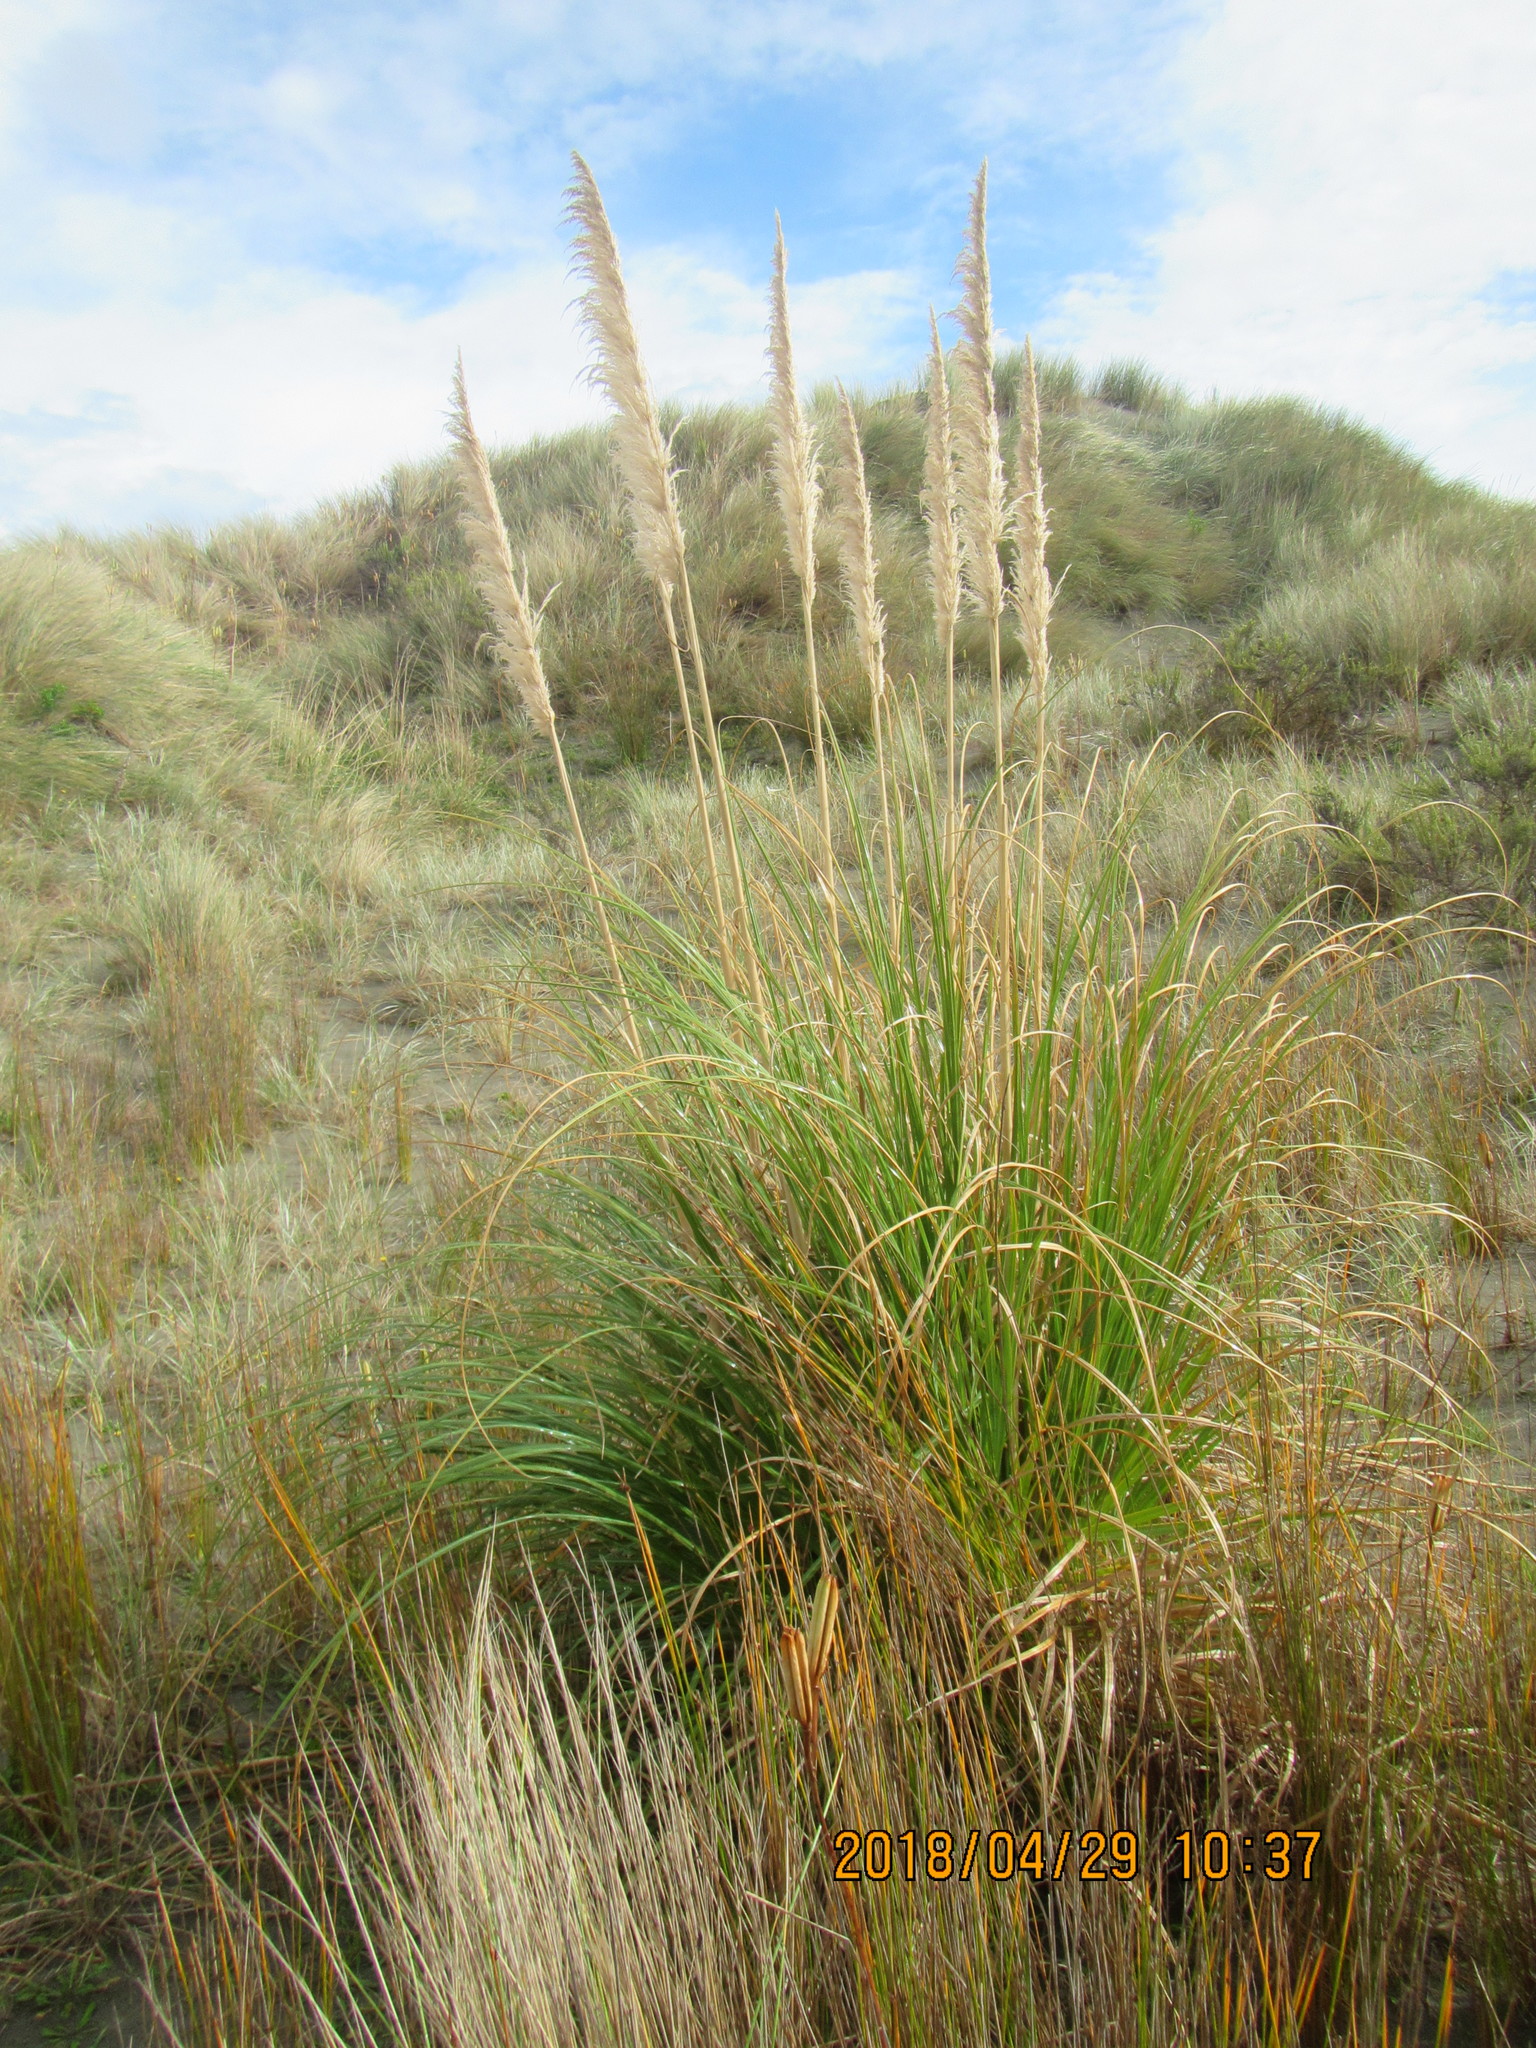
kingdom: Plantae
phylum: Tracheophyta
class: Liliopsida
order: Poales
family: Poaceae
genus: Cortaderia
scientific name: Cortaderia selloana
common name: Uruguayan pampas grass
